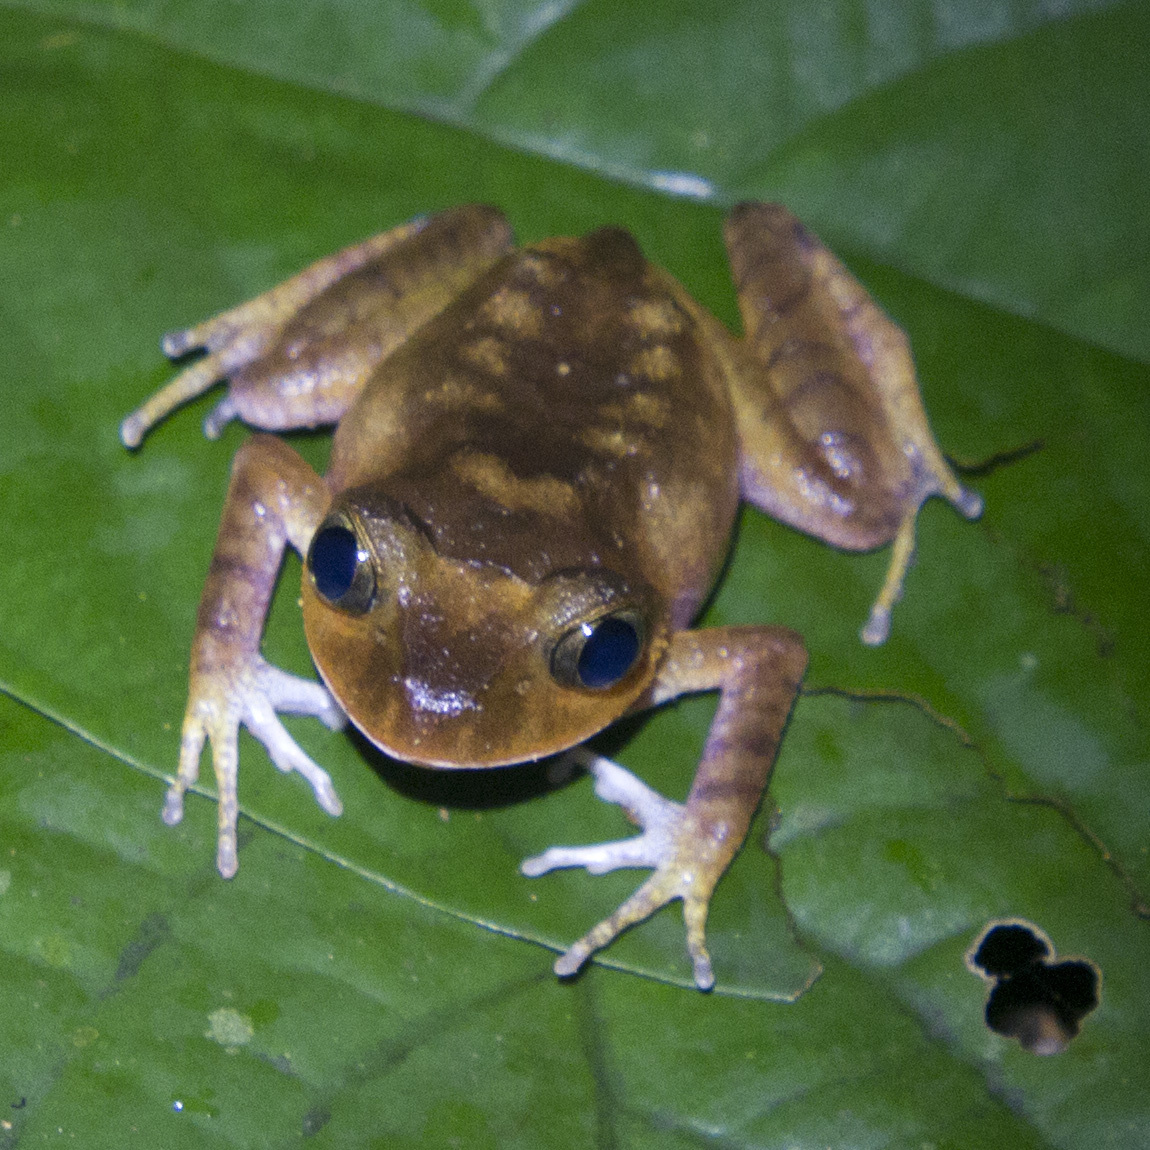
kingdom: Animalia
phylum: Chordata
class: Amphibia
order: Anura
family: Arthroleptidae
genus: Nyctibates
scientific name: Nyctibates corrugatus
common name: Southern night frog
